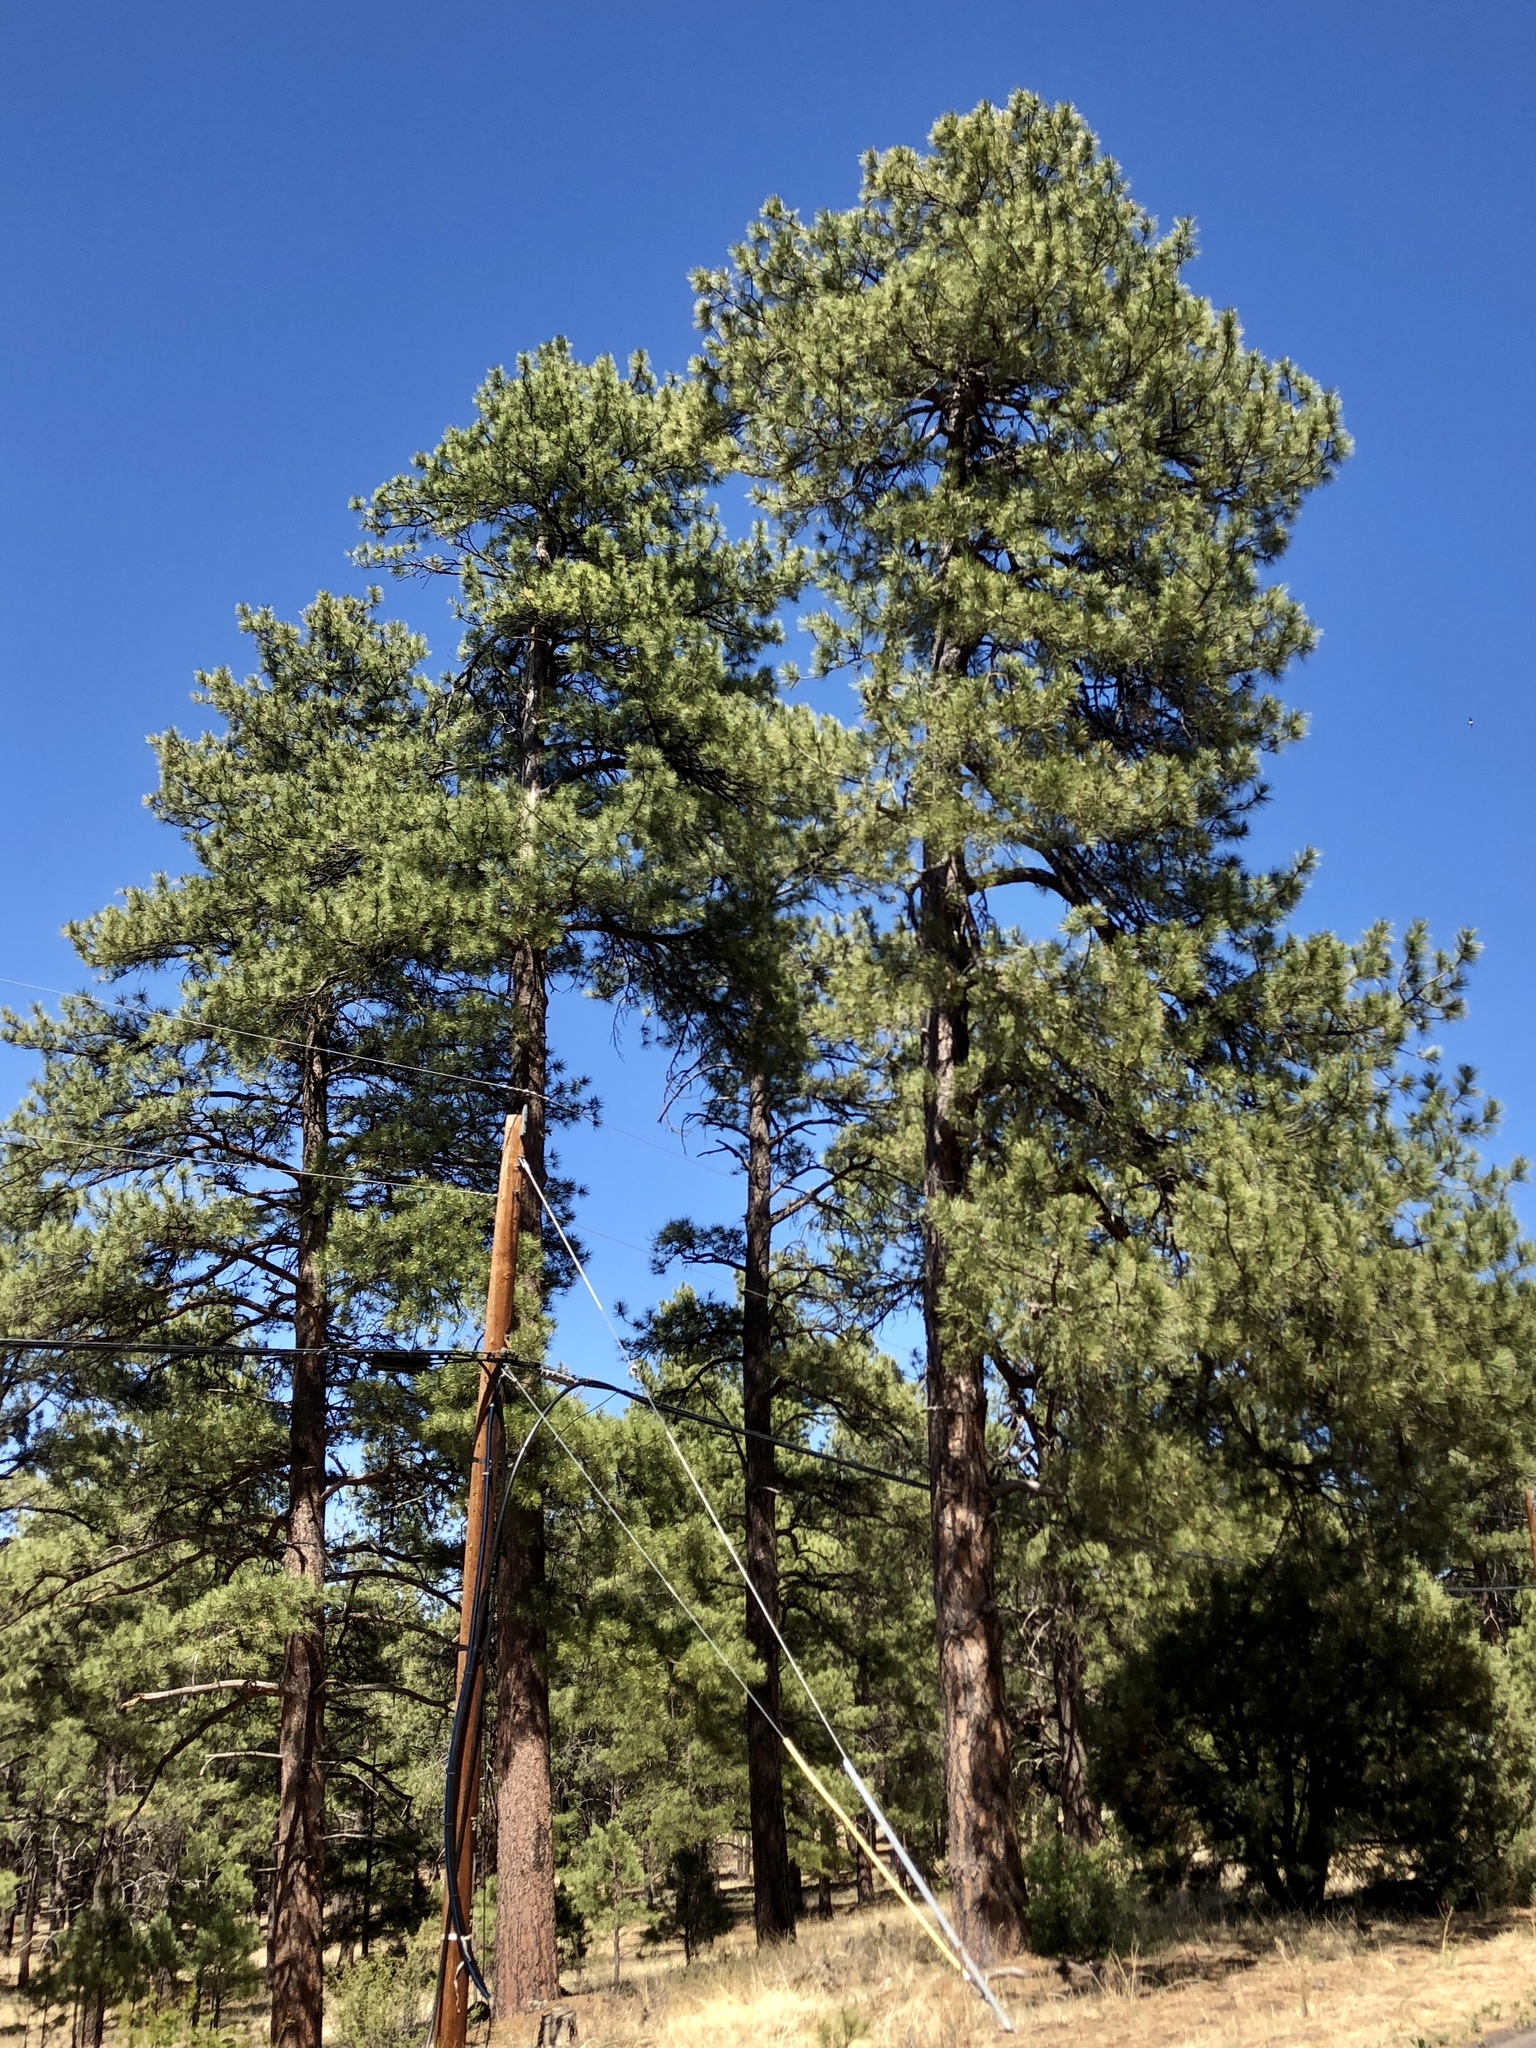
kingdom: Plantae
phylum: Tracheophyta
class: Pinopsida
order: Pinales
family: Pinaceae
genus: Pinus
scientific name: Pinus ponderosa
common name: Western yellow-pine
